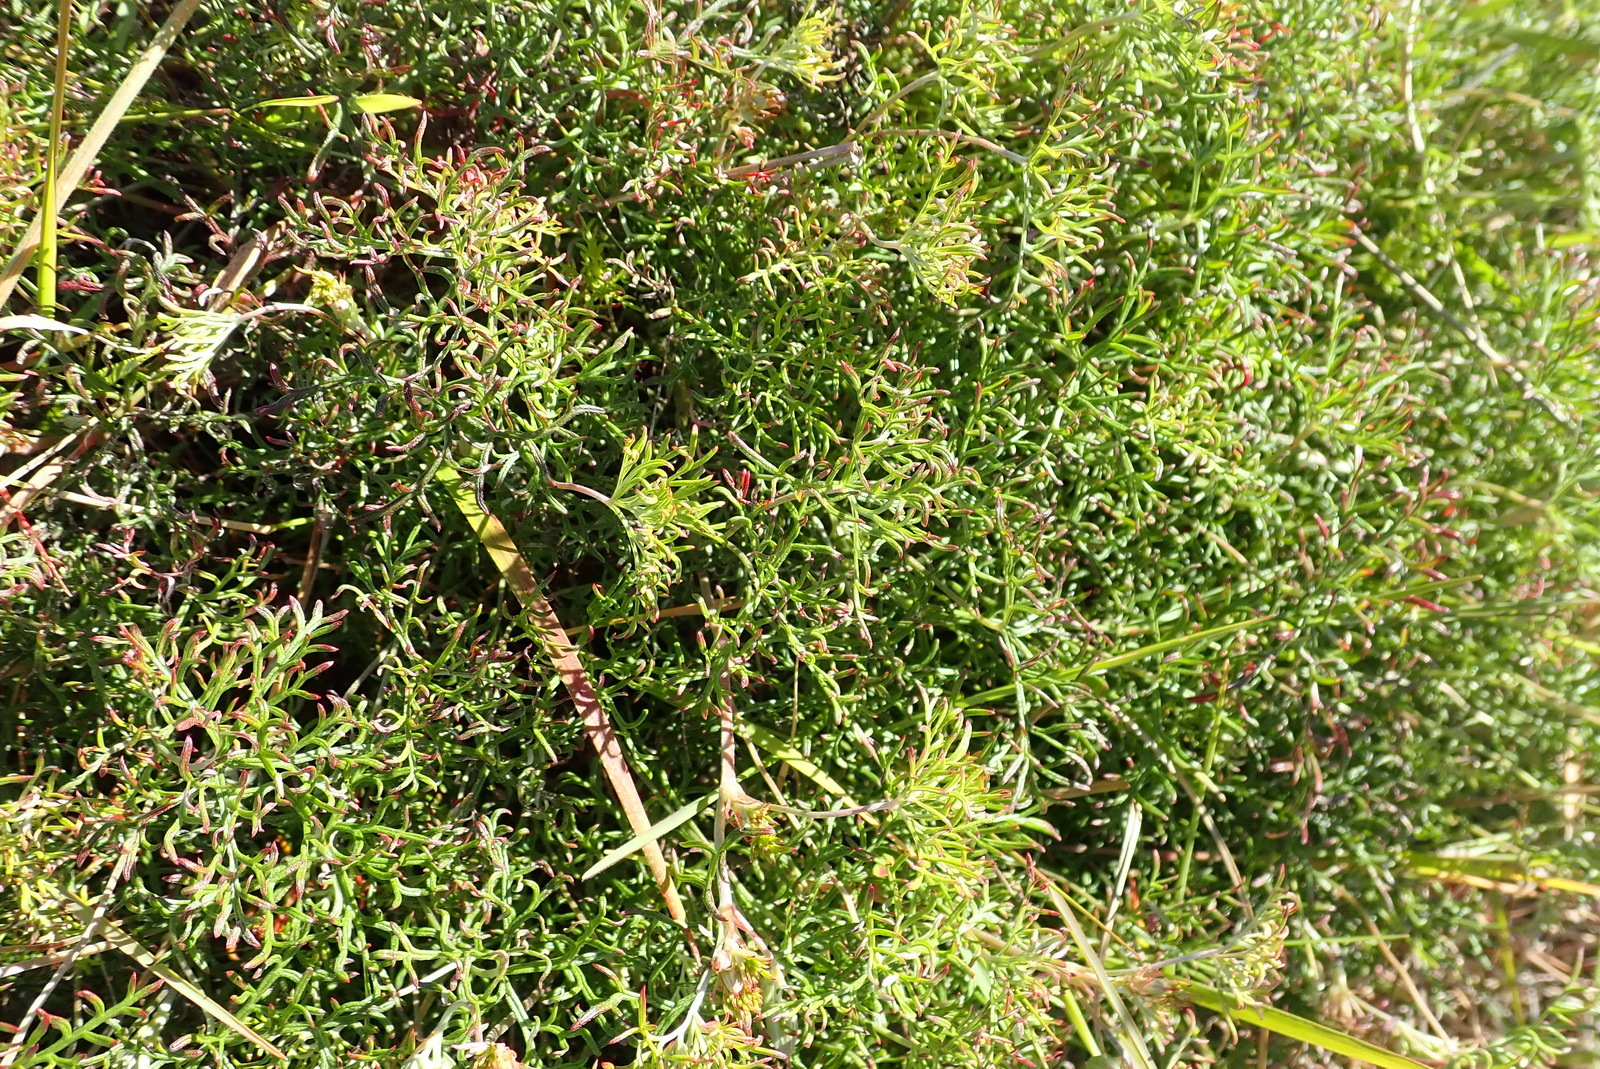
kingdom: Plantae
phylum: Tracheophyta
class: Magnoliopsida
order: Geraniales
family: Geraniaceae
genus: Geranium
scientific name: Geranium incanum
